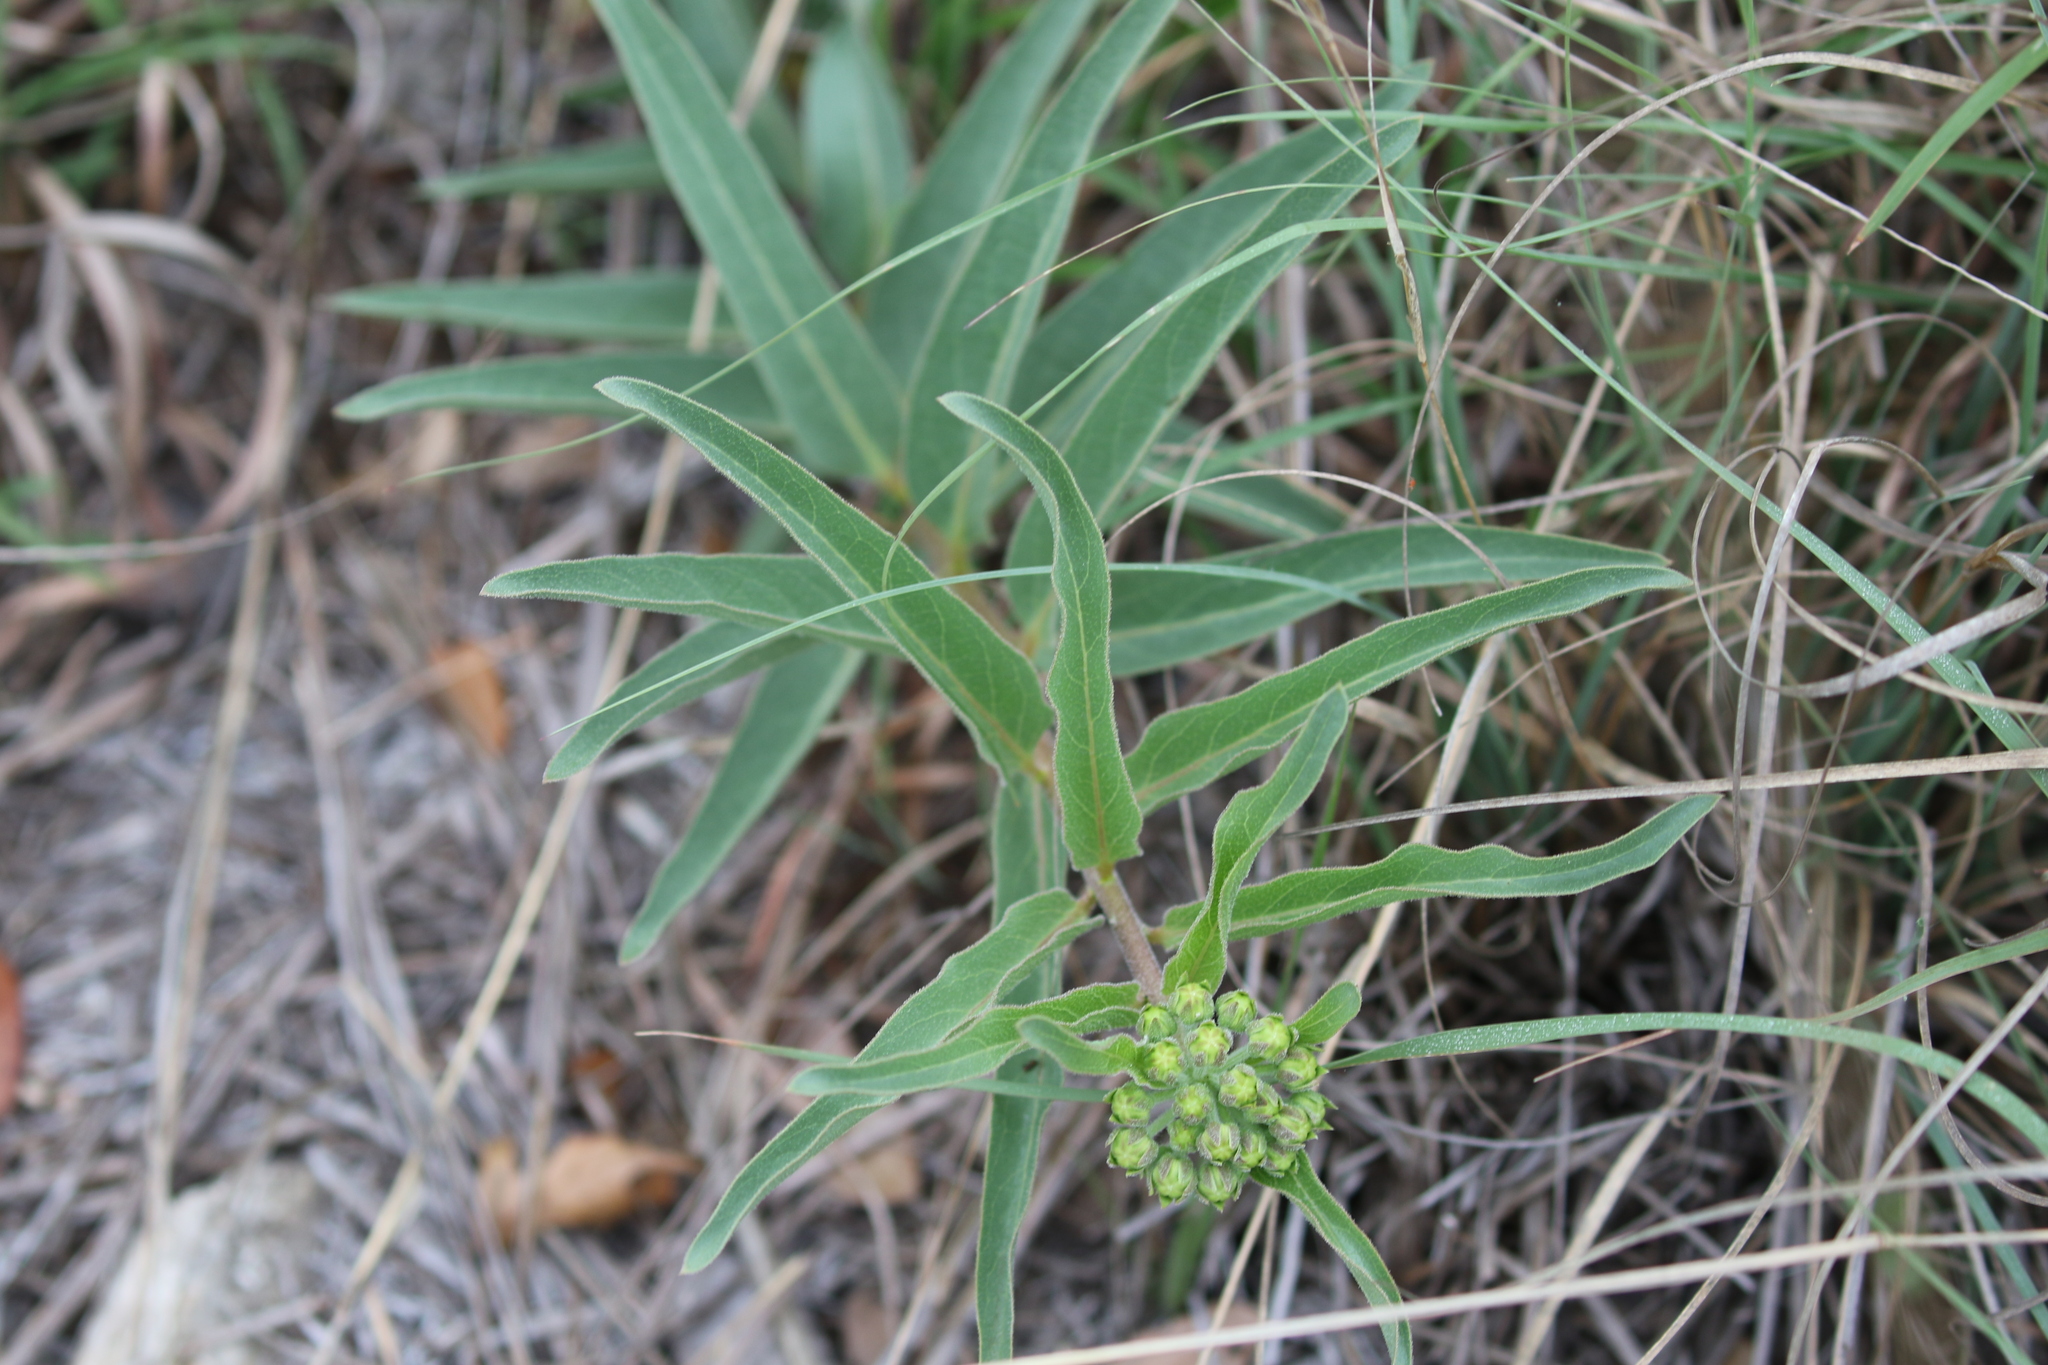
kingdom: Plantae
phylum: Tracheophyta
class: Magnoliopsida
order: Gentianales
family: Apocynaceae
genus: Asclepias
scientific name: Asclepias asperula
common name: Antelope horns
